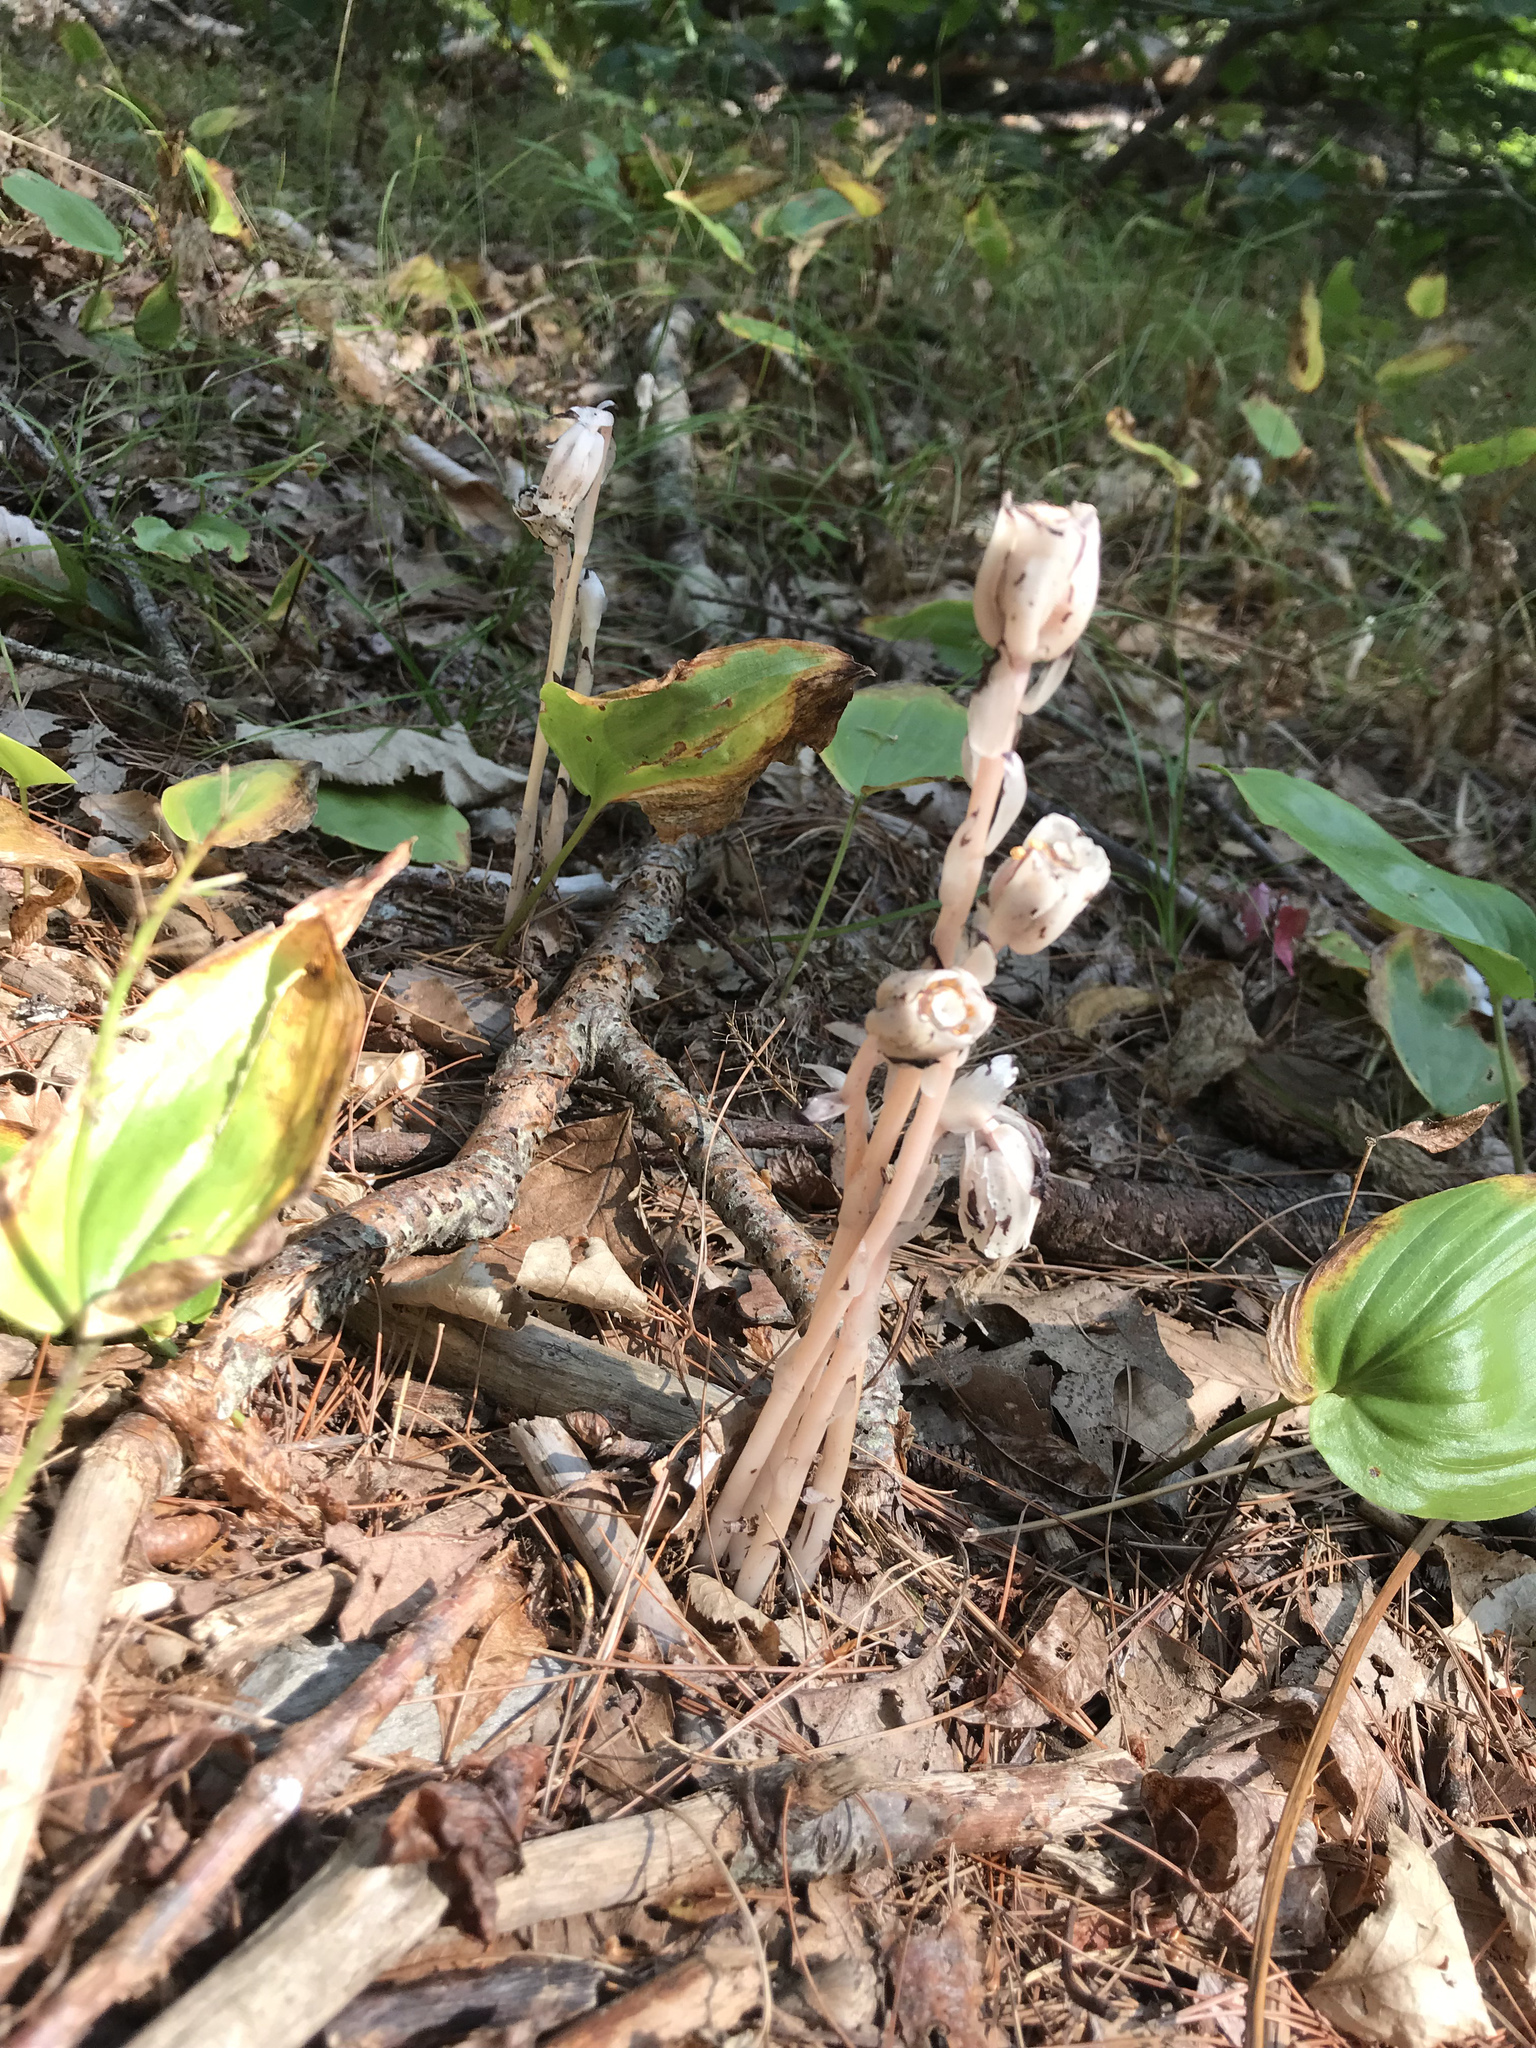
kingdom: Plantae
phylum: Tracheophyta
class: Magnoliopsida
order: Ericales
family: Ericaceae
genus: Monotropa
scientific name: Monotropa uniflora
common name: Convulsion root
